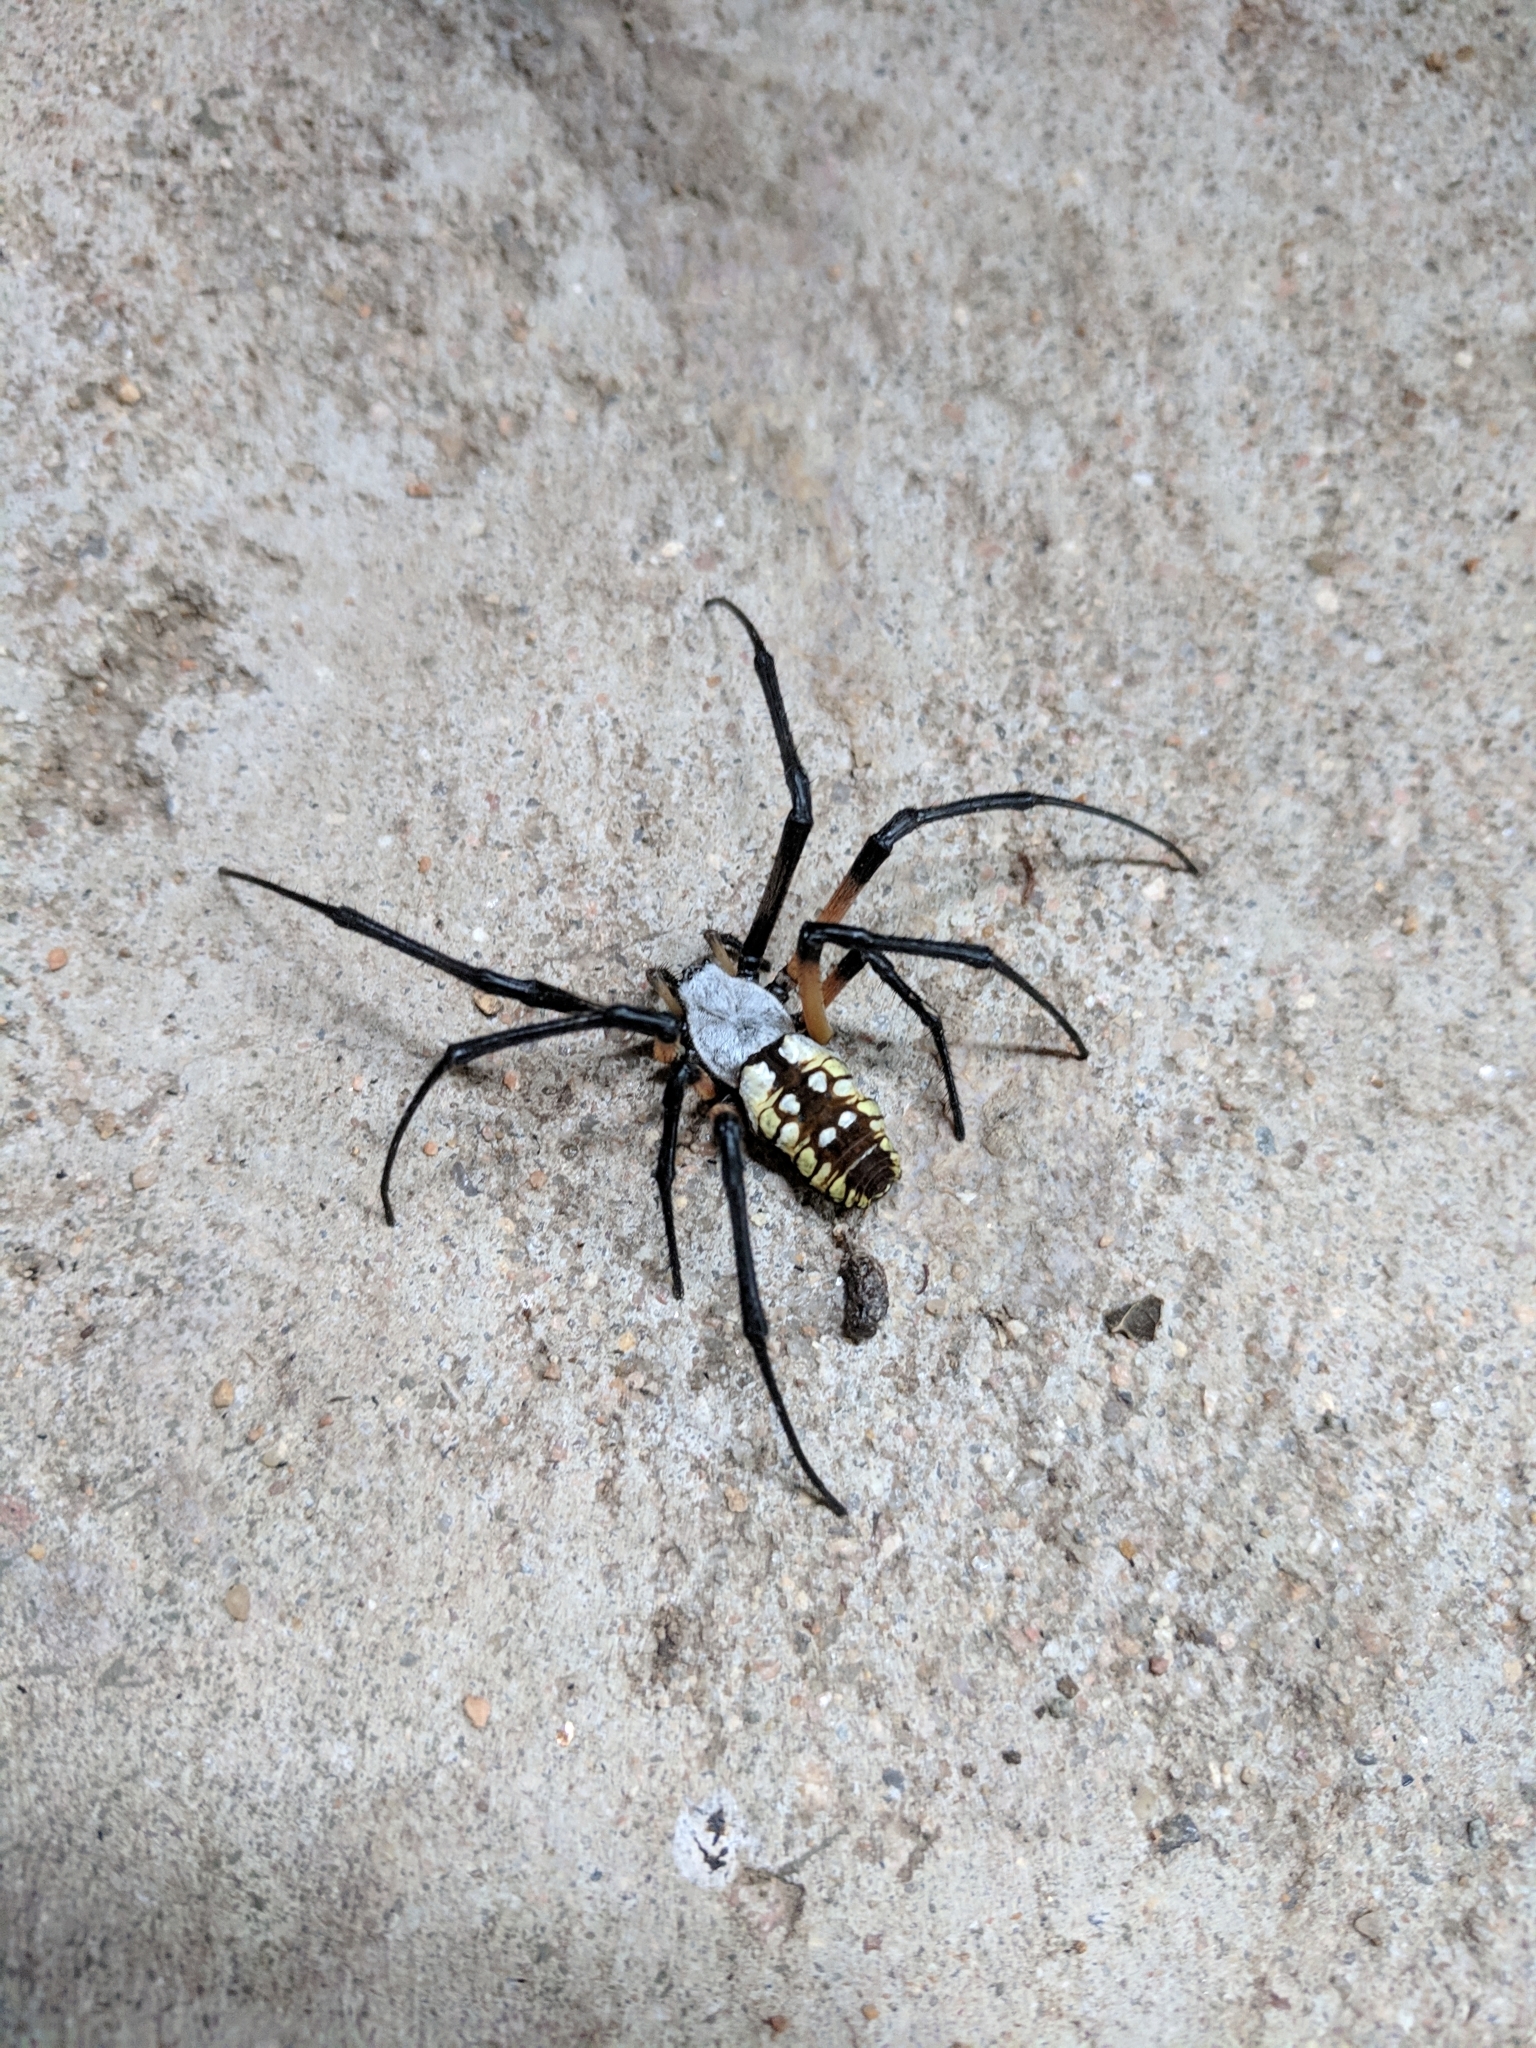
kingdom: Animalia
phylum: Arthropoda
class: Arachnida
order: Araneae
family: Araneidae
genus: Argiope
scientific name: Argiope aurantia
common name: Orb weavers
